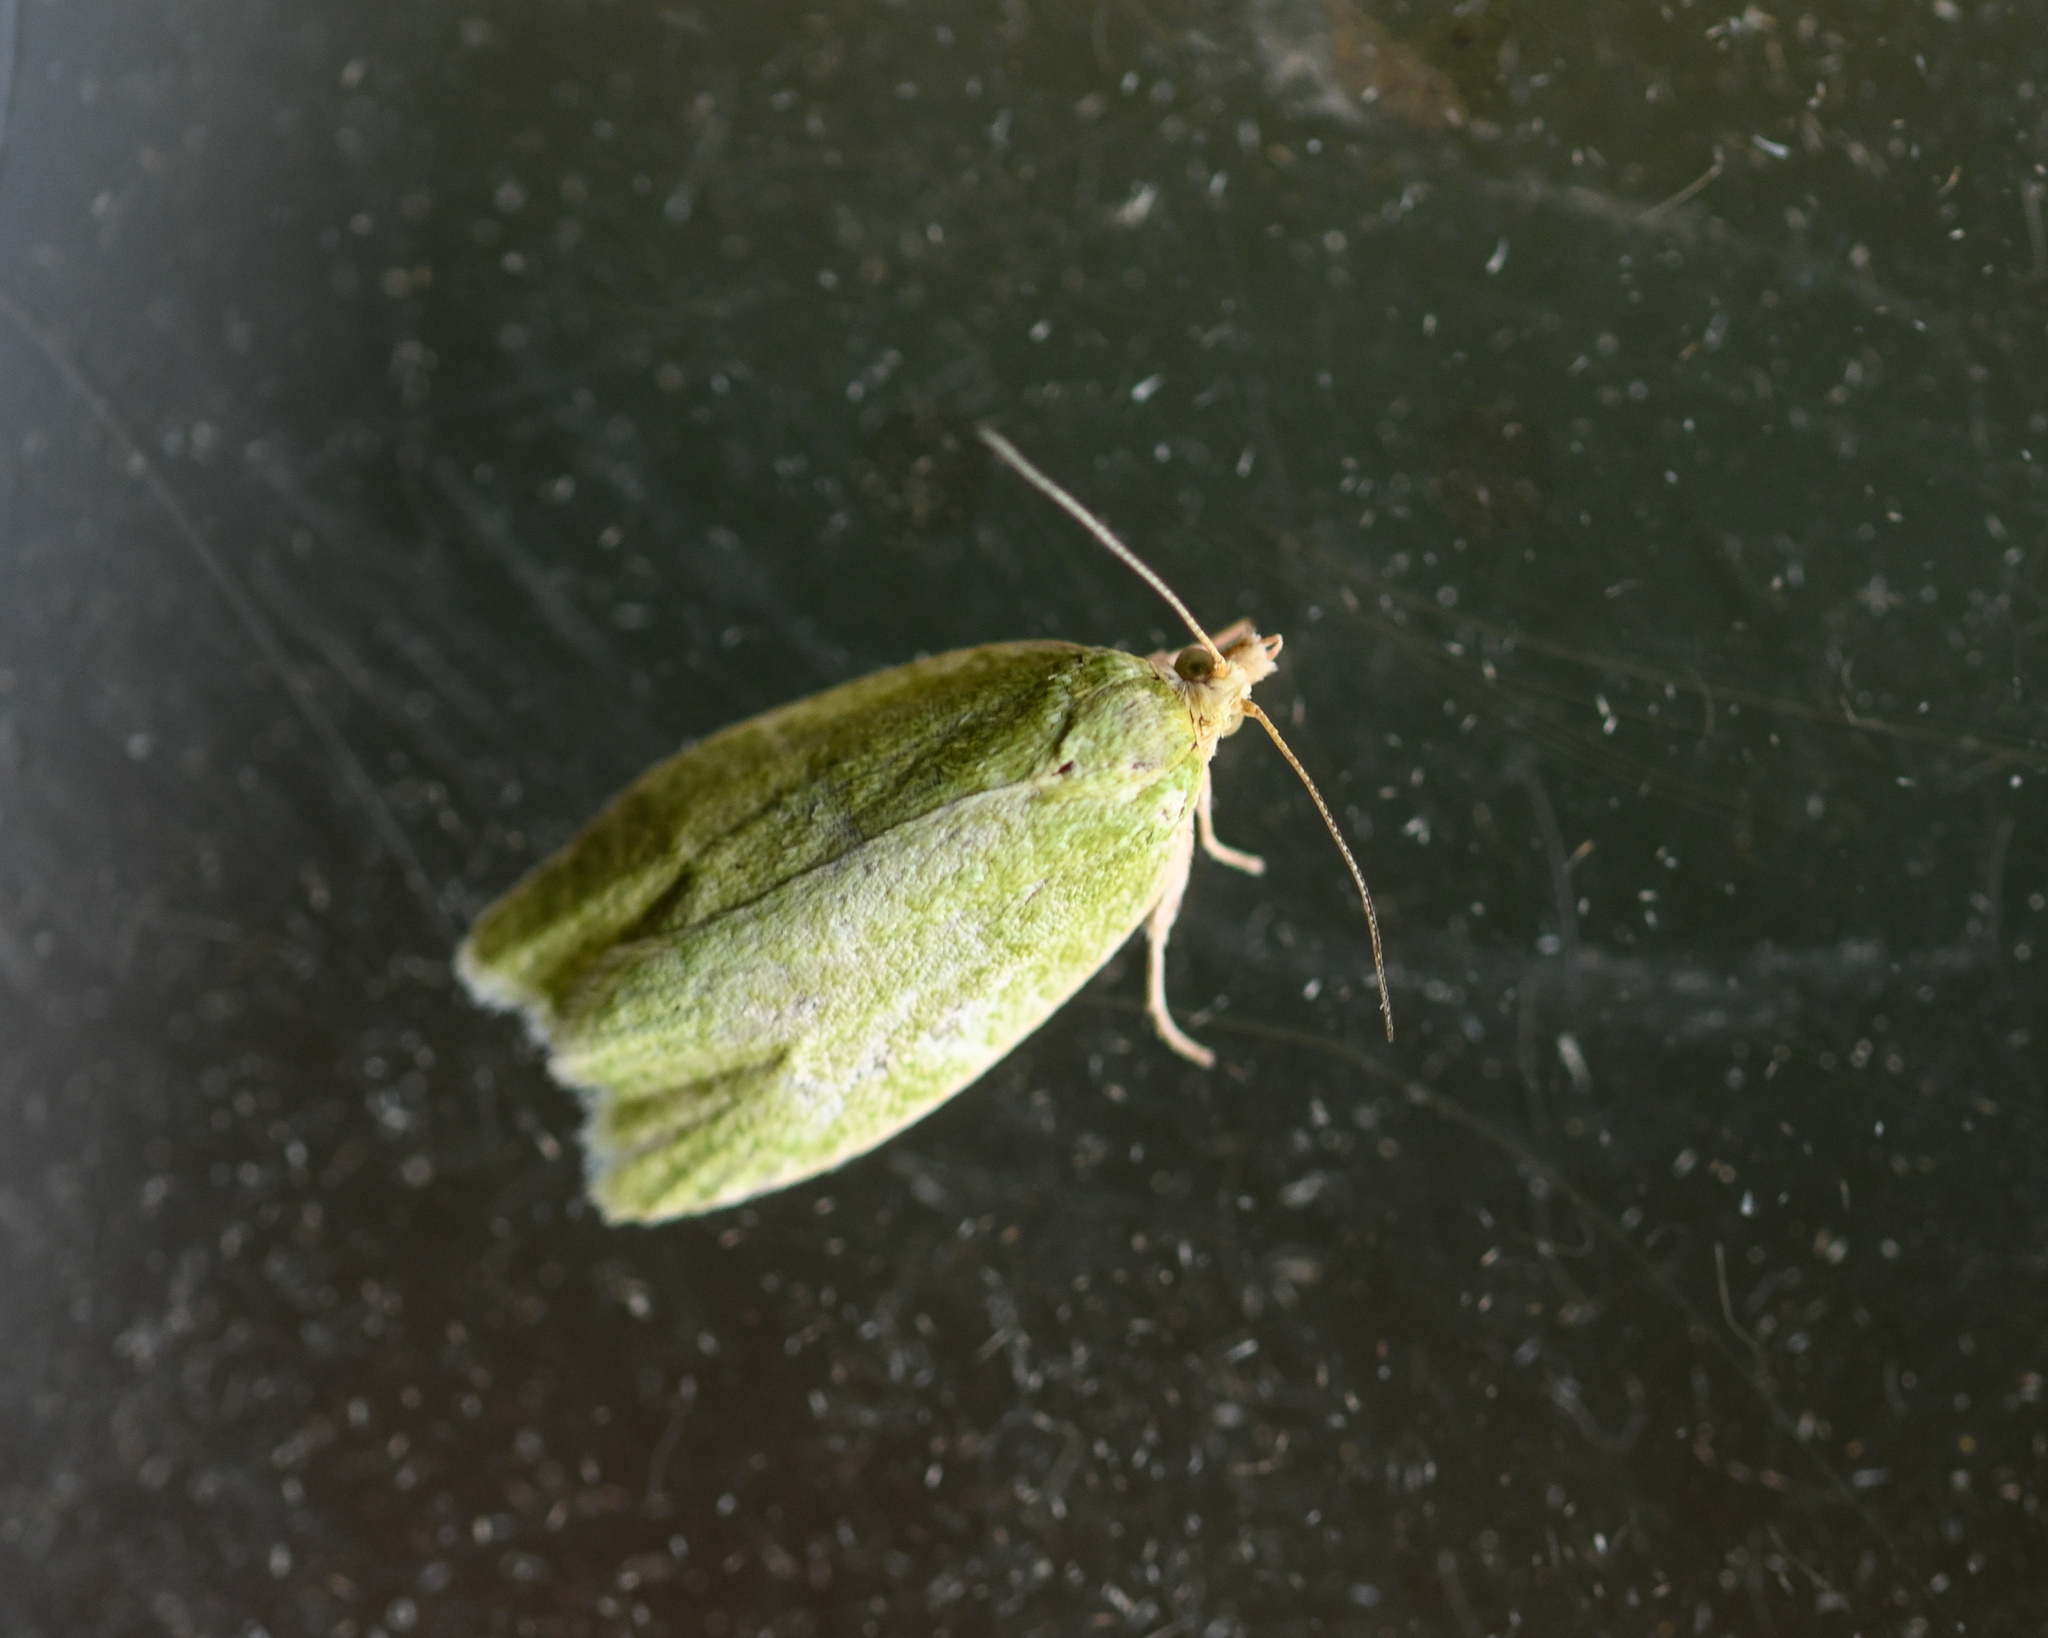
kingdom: Animalia
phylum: Arthropoda
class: Insecta
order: Lepidoptera
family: Tortricidae
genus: Tortrix
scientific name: Tortrix viridana
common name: Green oak tortrix
